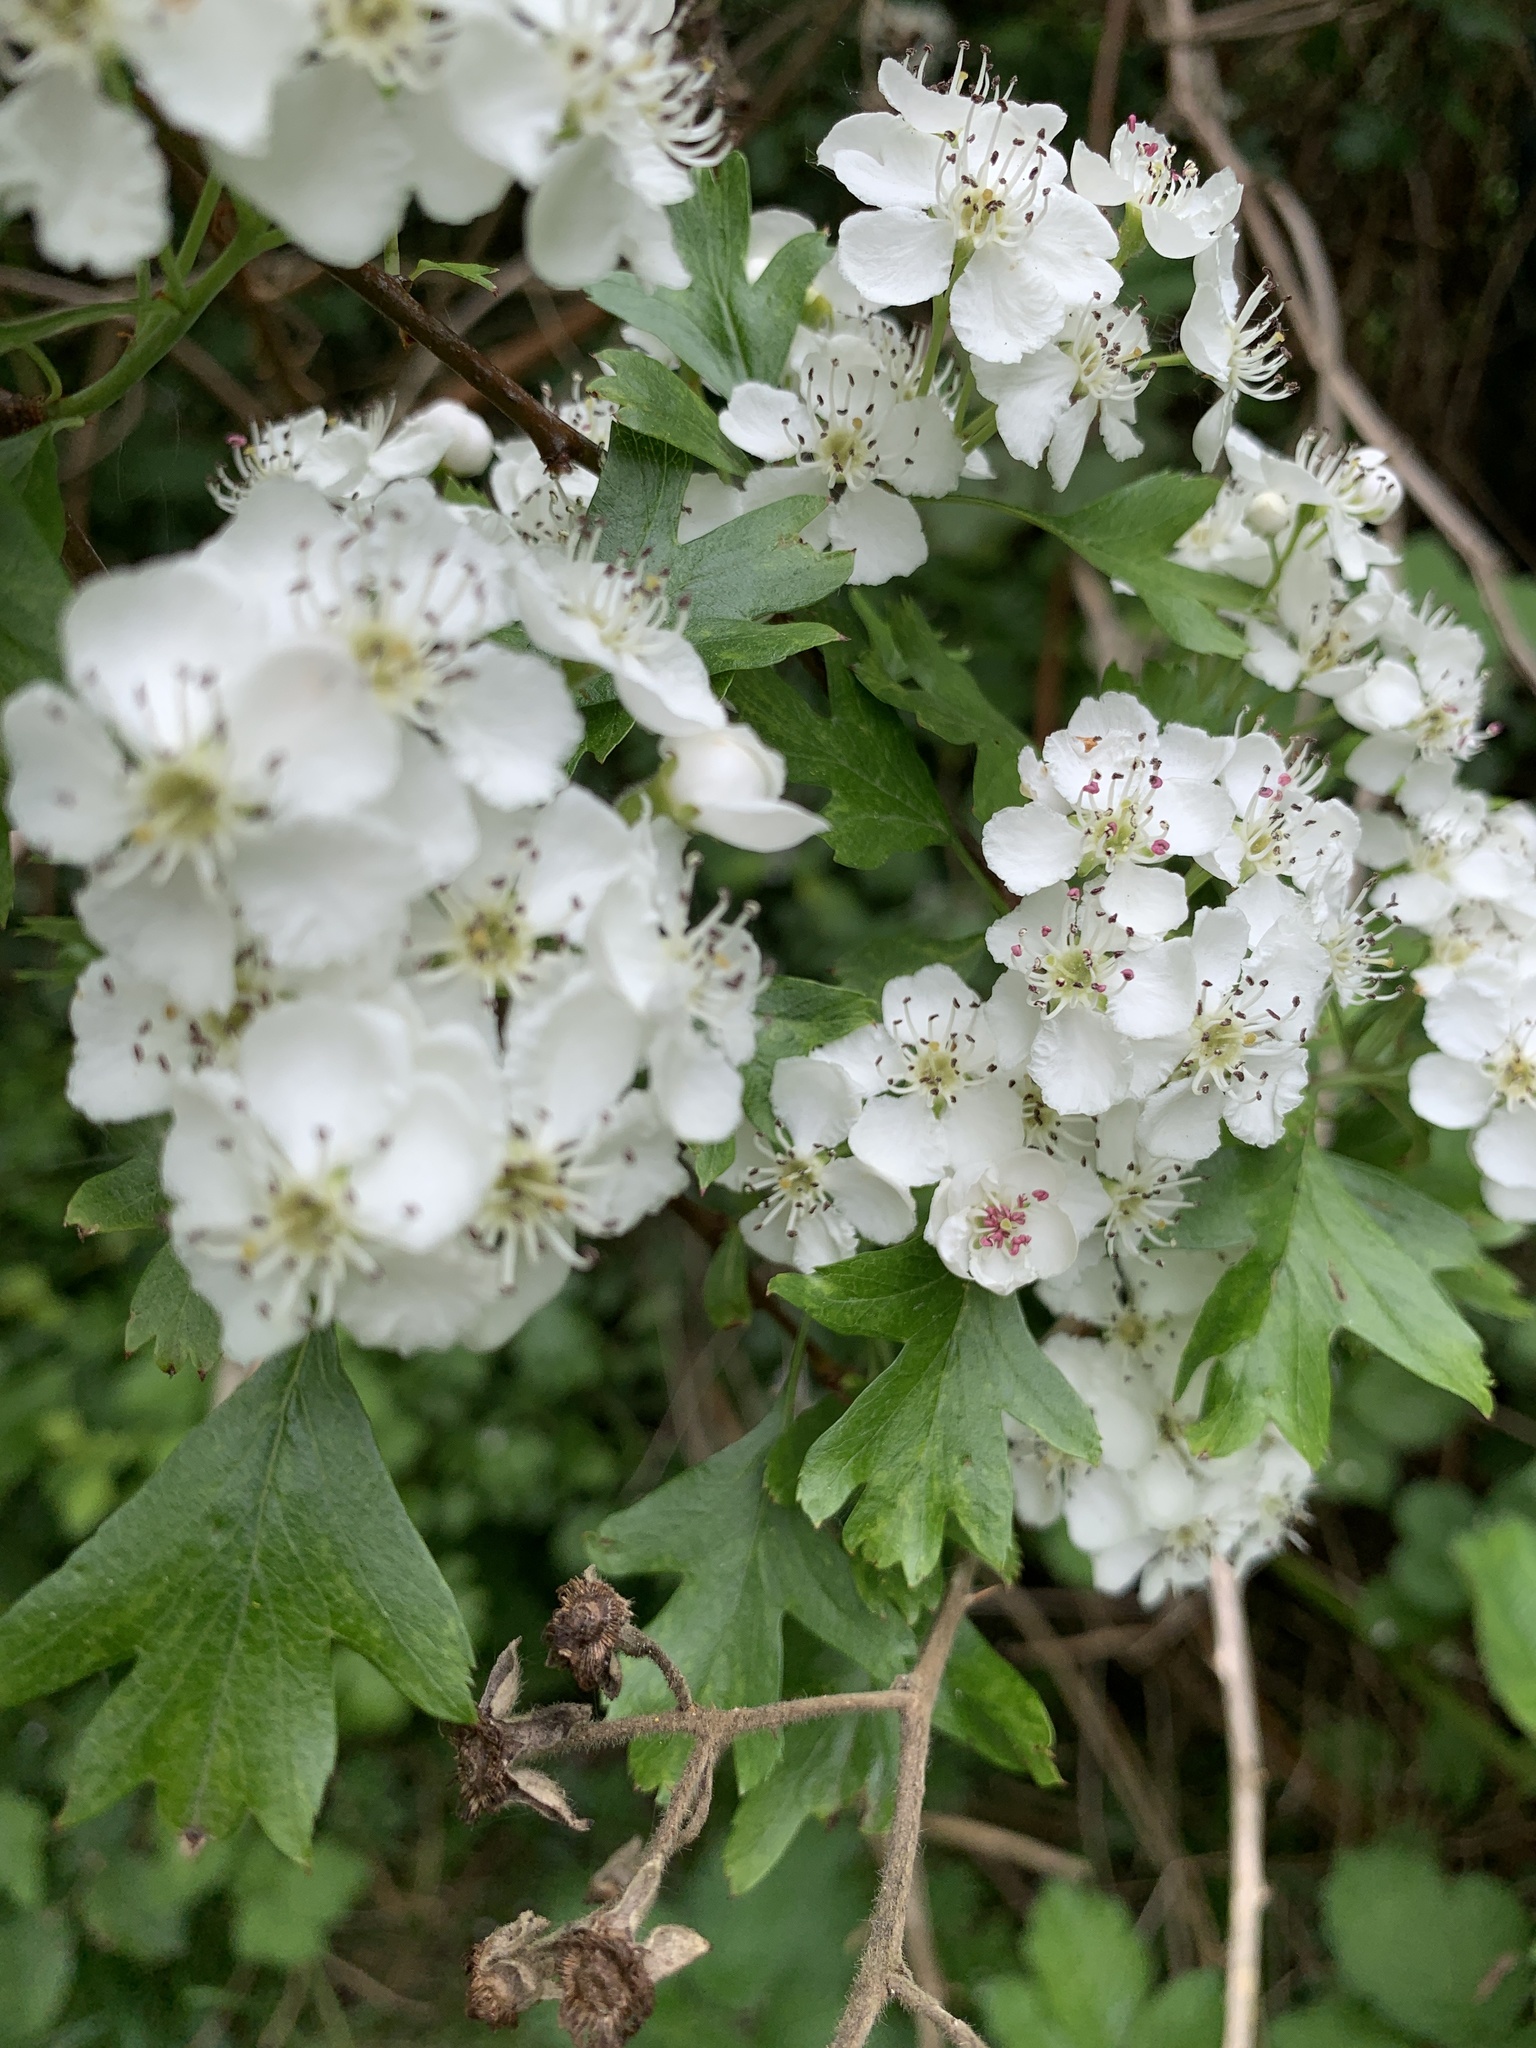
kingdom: Plantae
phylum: Tracheophyta
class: Magnoliopsida
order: Rosales
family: Rosaceae
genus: Crataegus
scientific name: Crataegus monogyna
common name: Hawthorn
